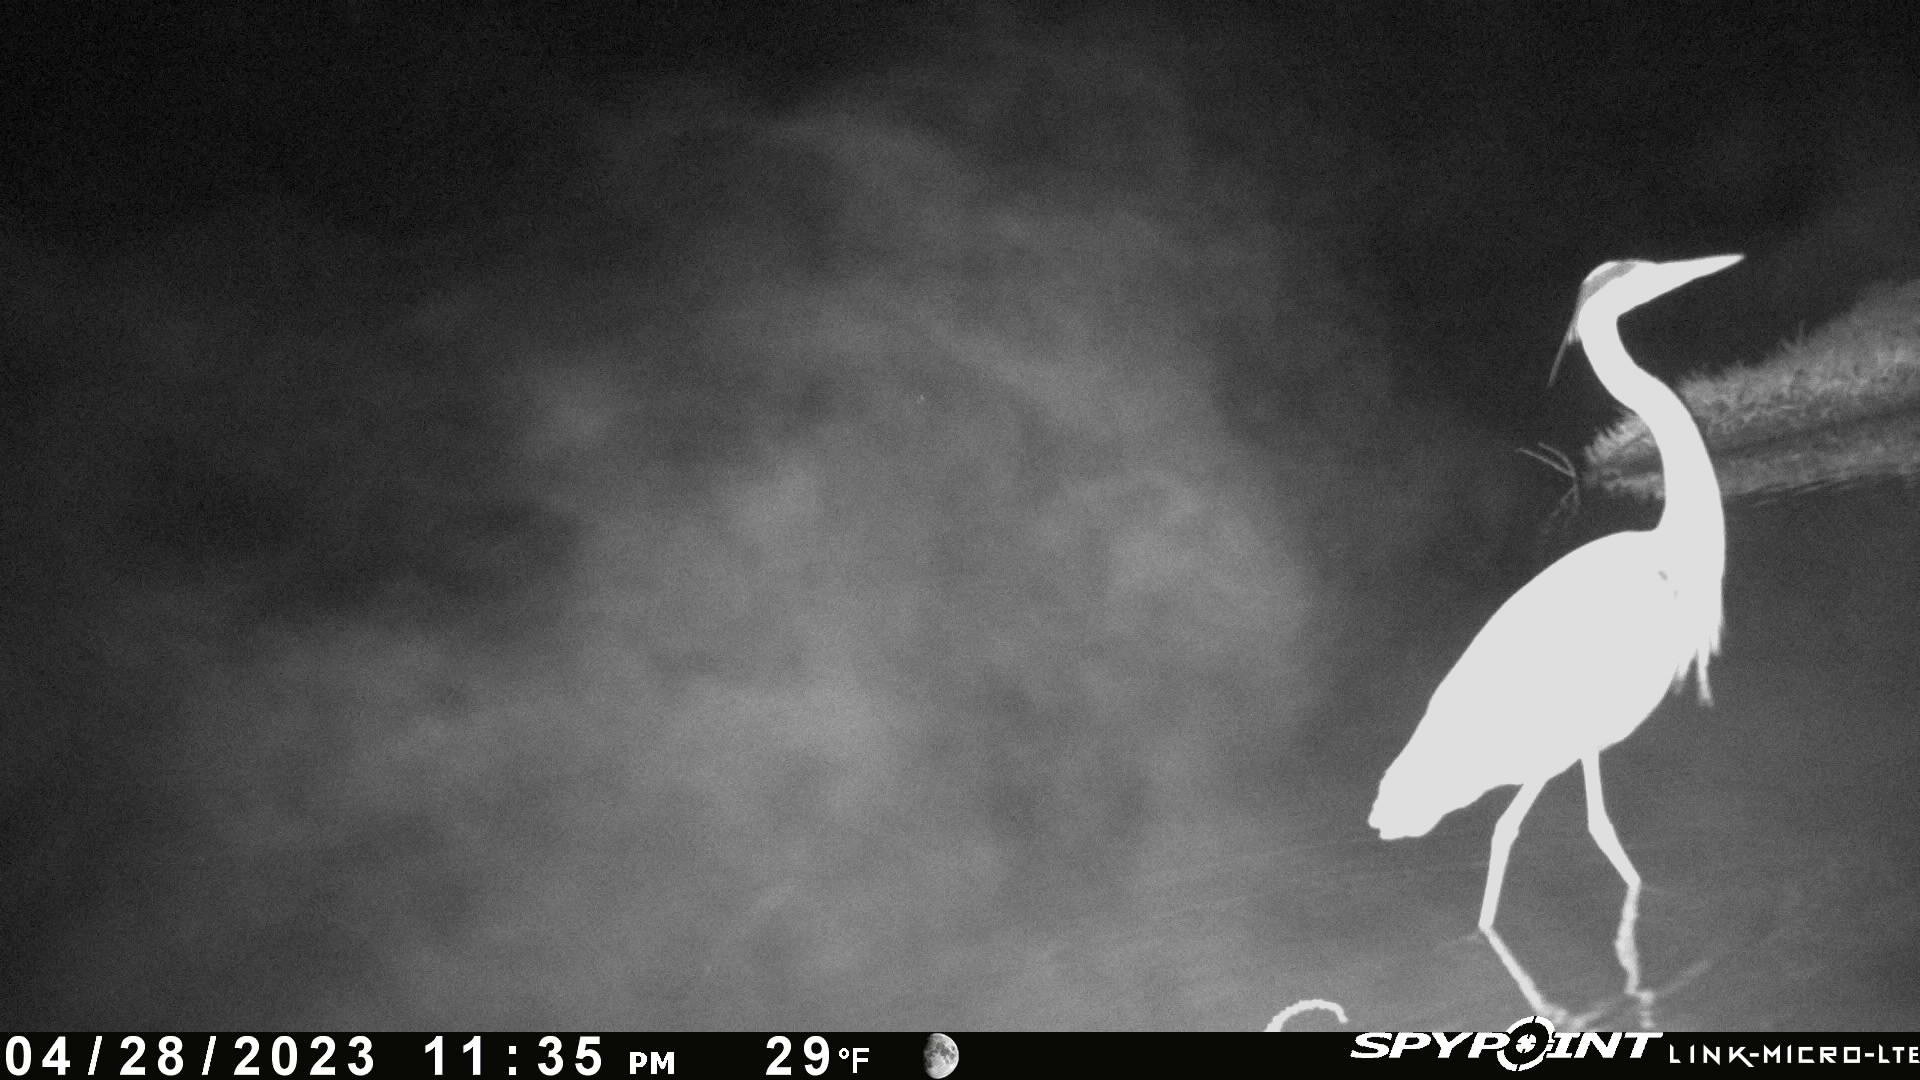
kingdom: Animalia
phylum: Chordata
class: Aves
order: Pelecaniformes
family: Ardeidae
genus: Ardea
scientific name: Ardea herodias
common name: Great blue heron
